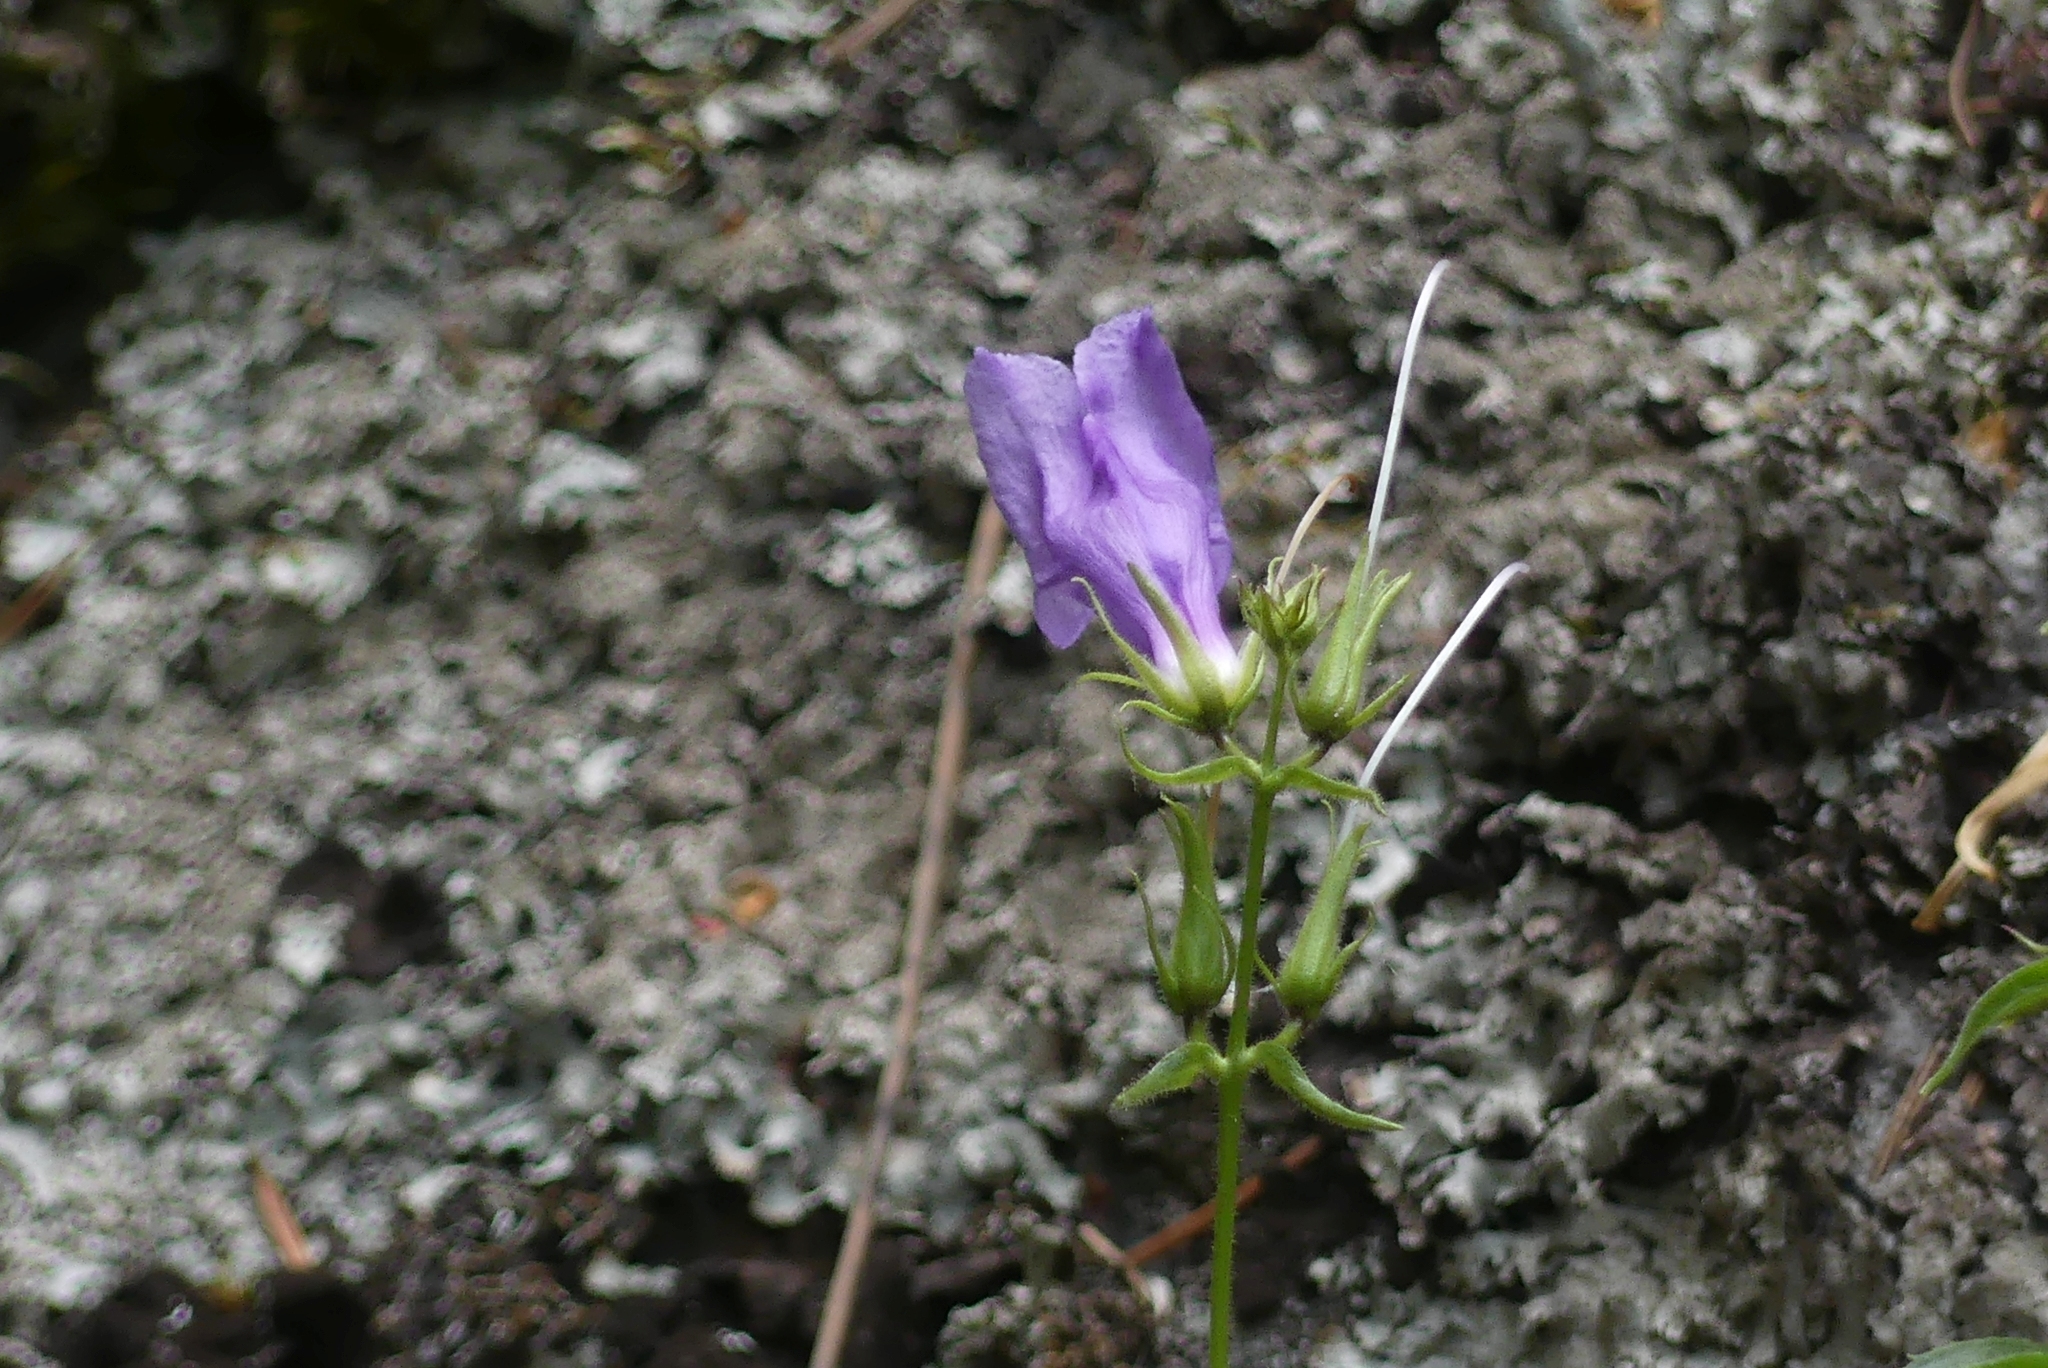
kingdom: Plantae
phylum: Tracheophyta
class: Magnoliopsida
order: Lamiales
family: Plantaginaceae
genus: Penstemon
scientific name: Penstemon fruticosus
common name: Bush penstemon
